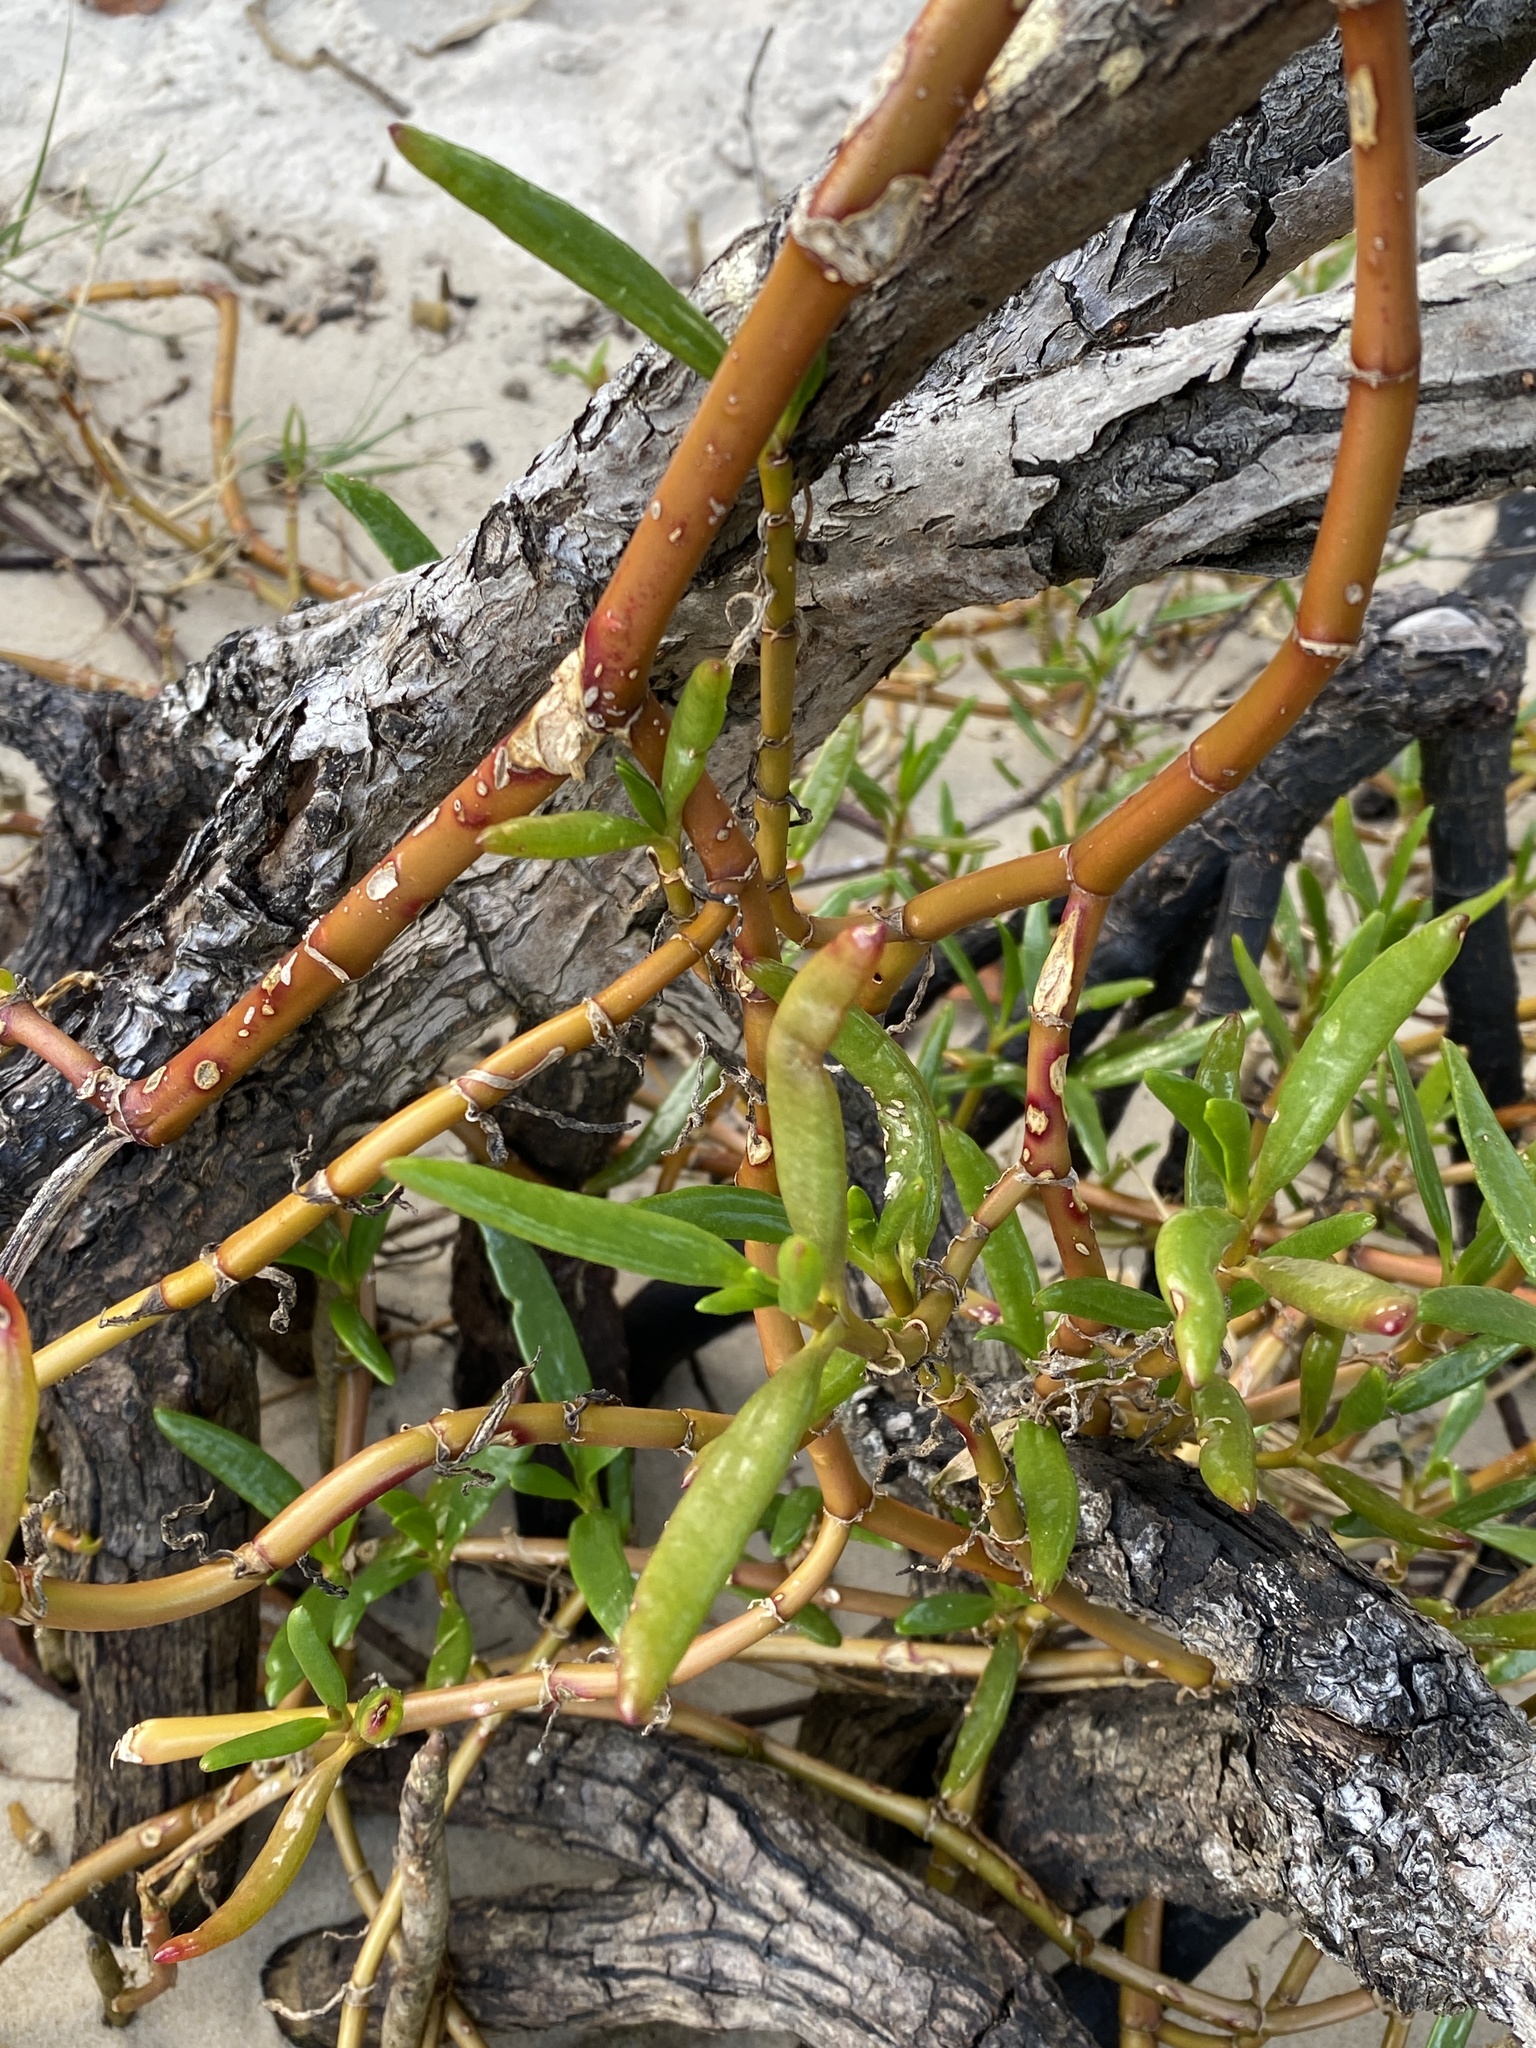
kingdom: Plantae
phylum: Tracheophyta
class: Magnoliopsida
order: Caryophyllales
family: Aizoaceae
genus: Sesuvium
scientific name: Sesuvium portulacastrum
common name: Sea-purslane
